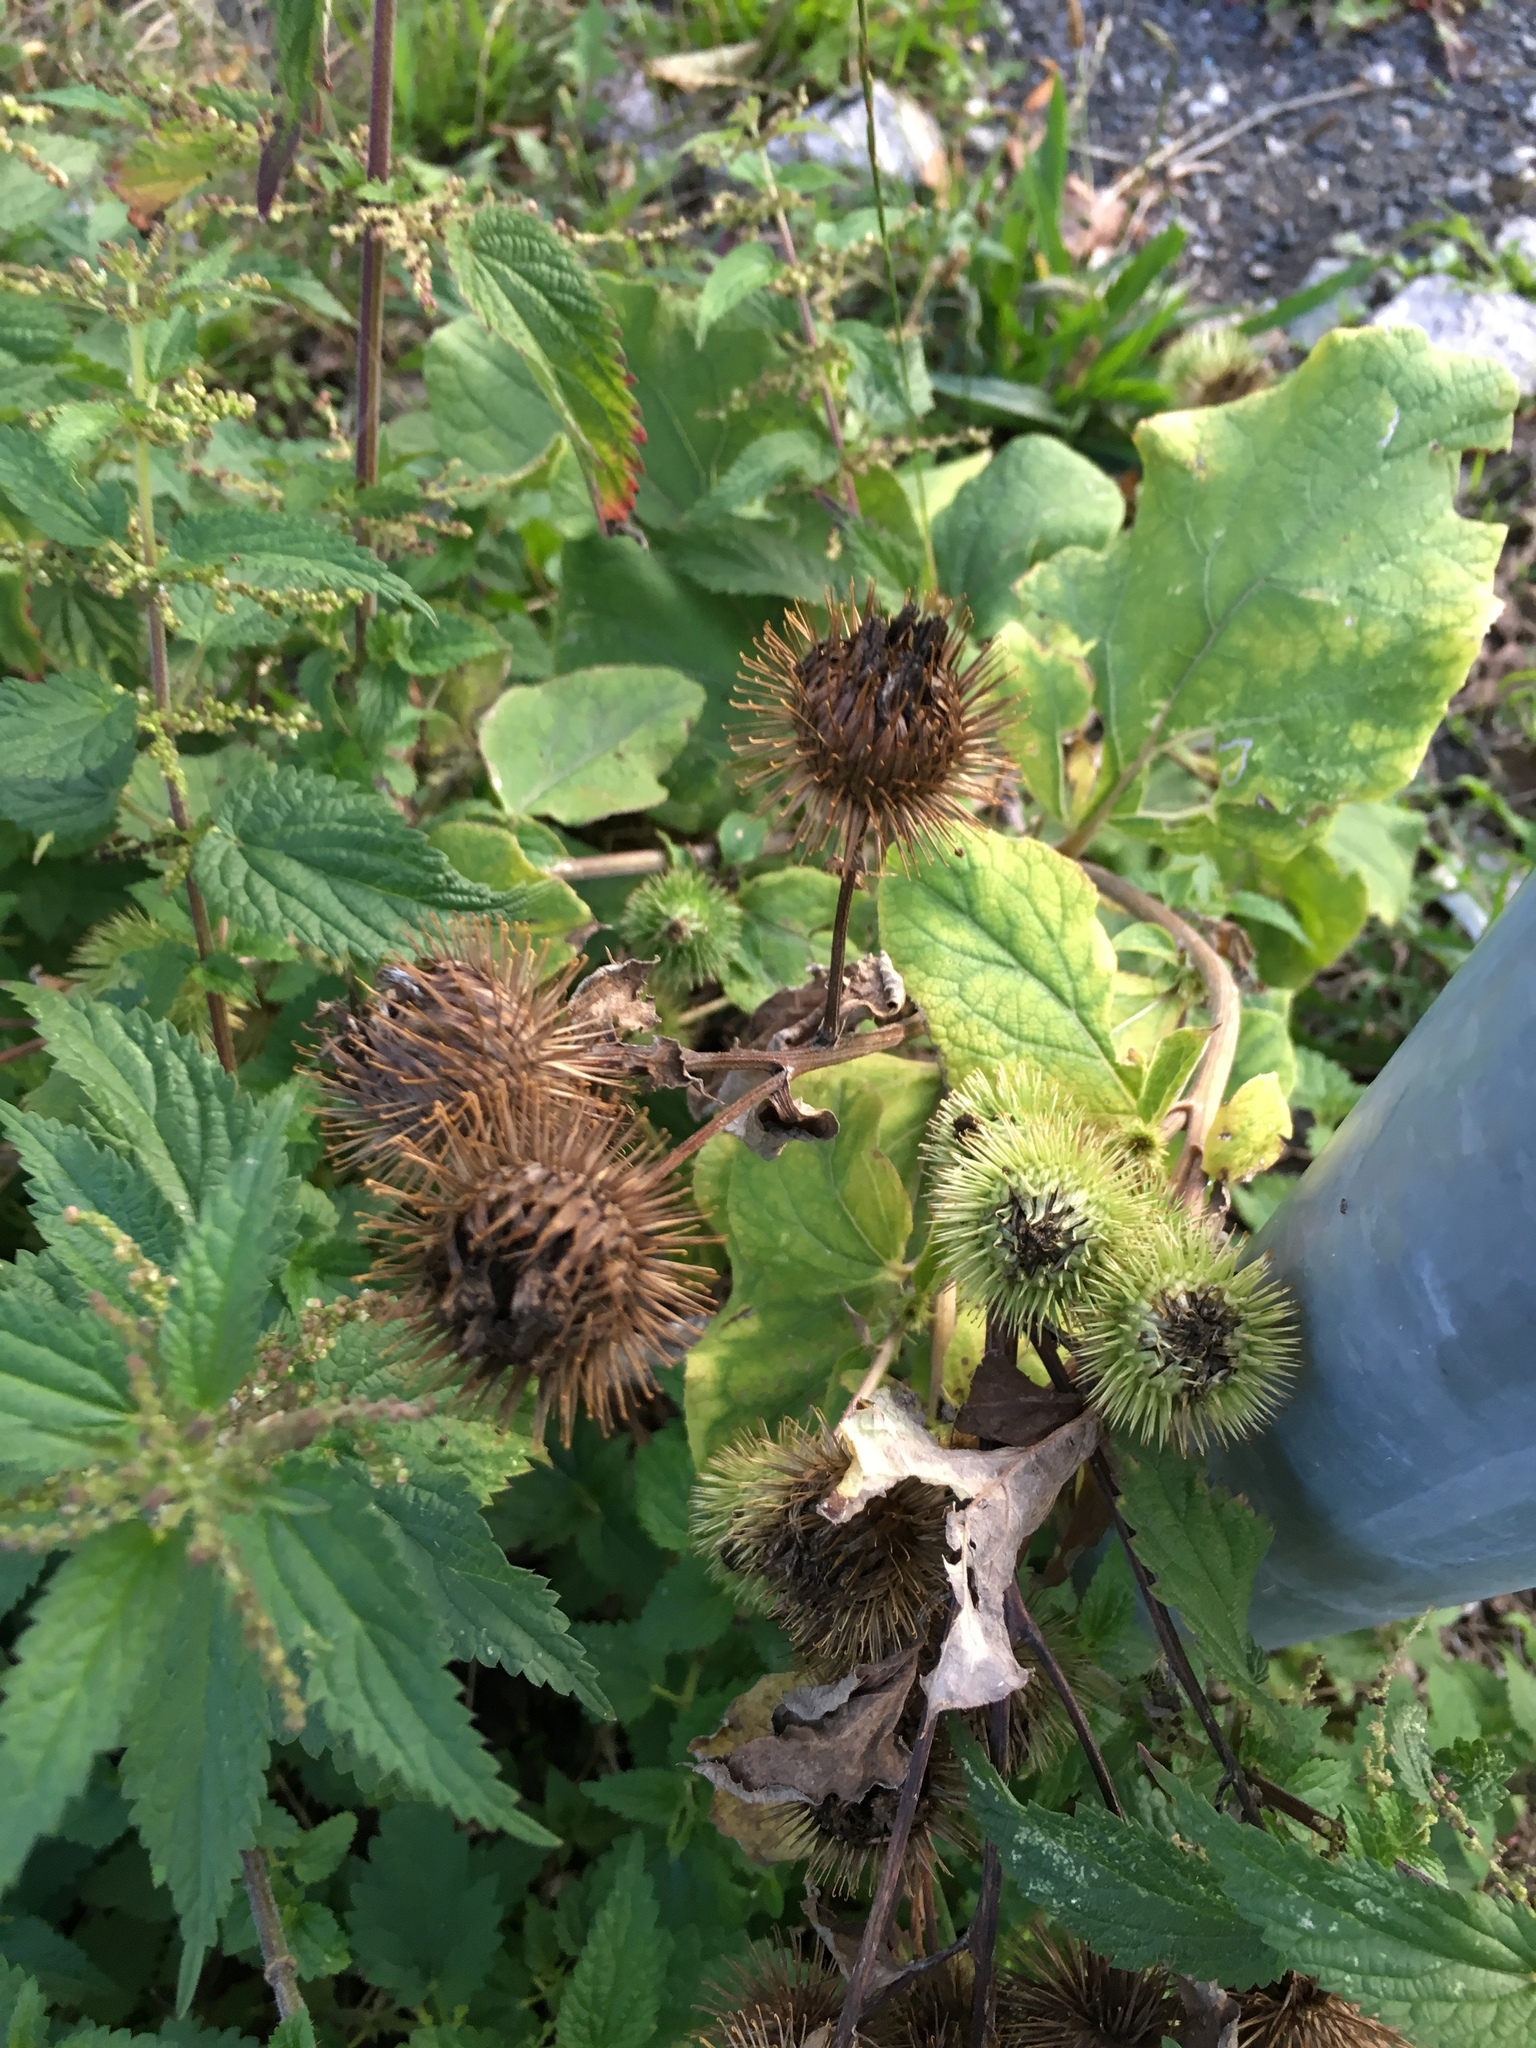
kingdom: Plantae
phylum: Tracheophyta
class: Magnoliopsida
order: Asterales
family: Asteraceae
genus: Arctium
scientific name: Arctium lappa
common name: Greater burdock
